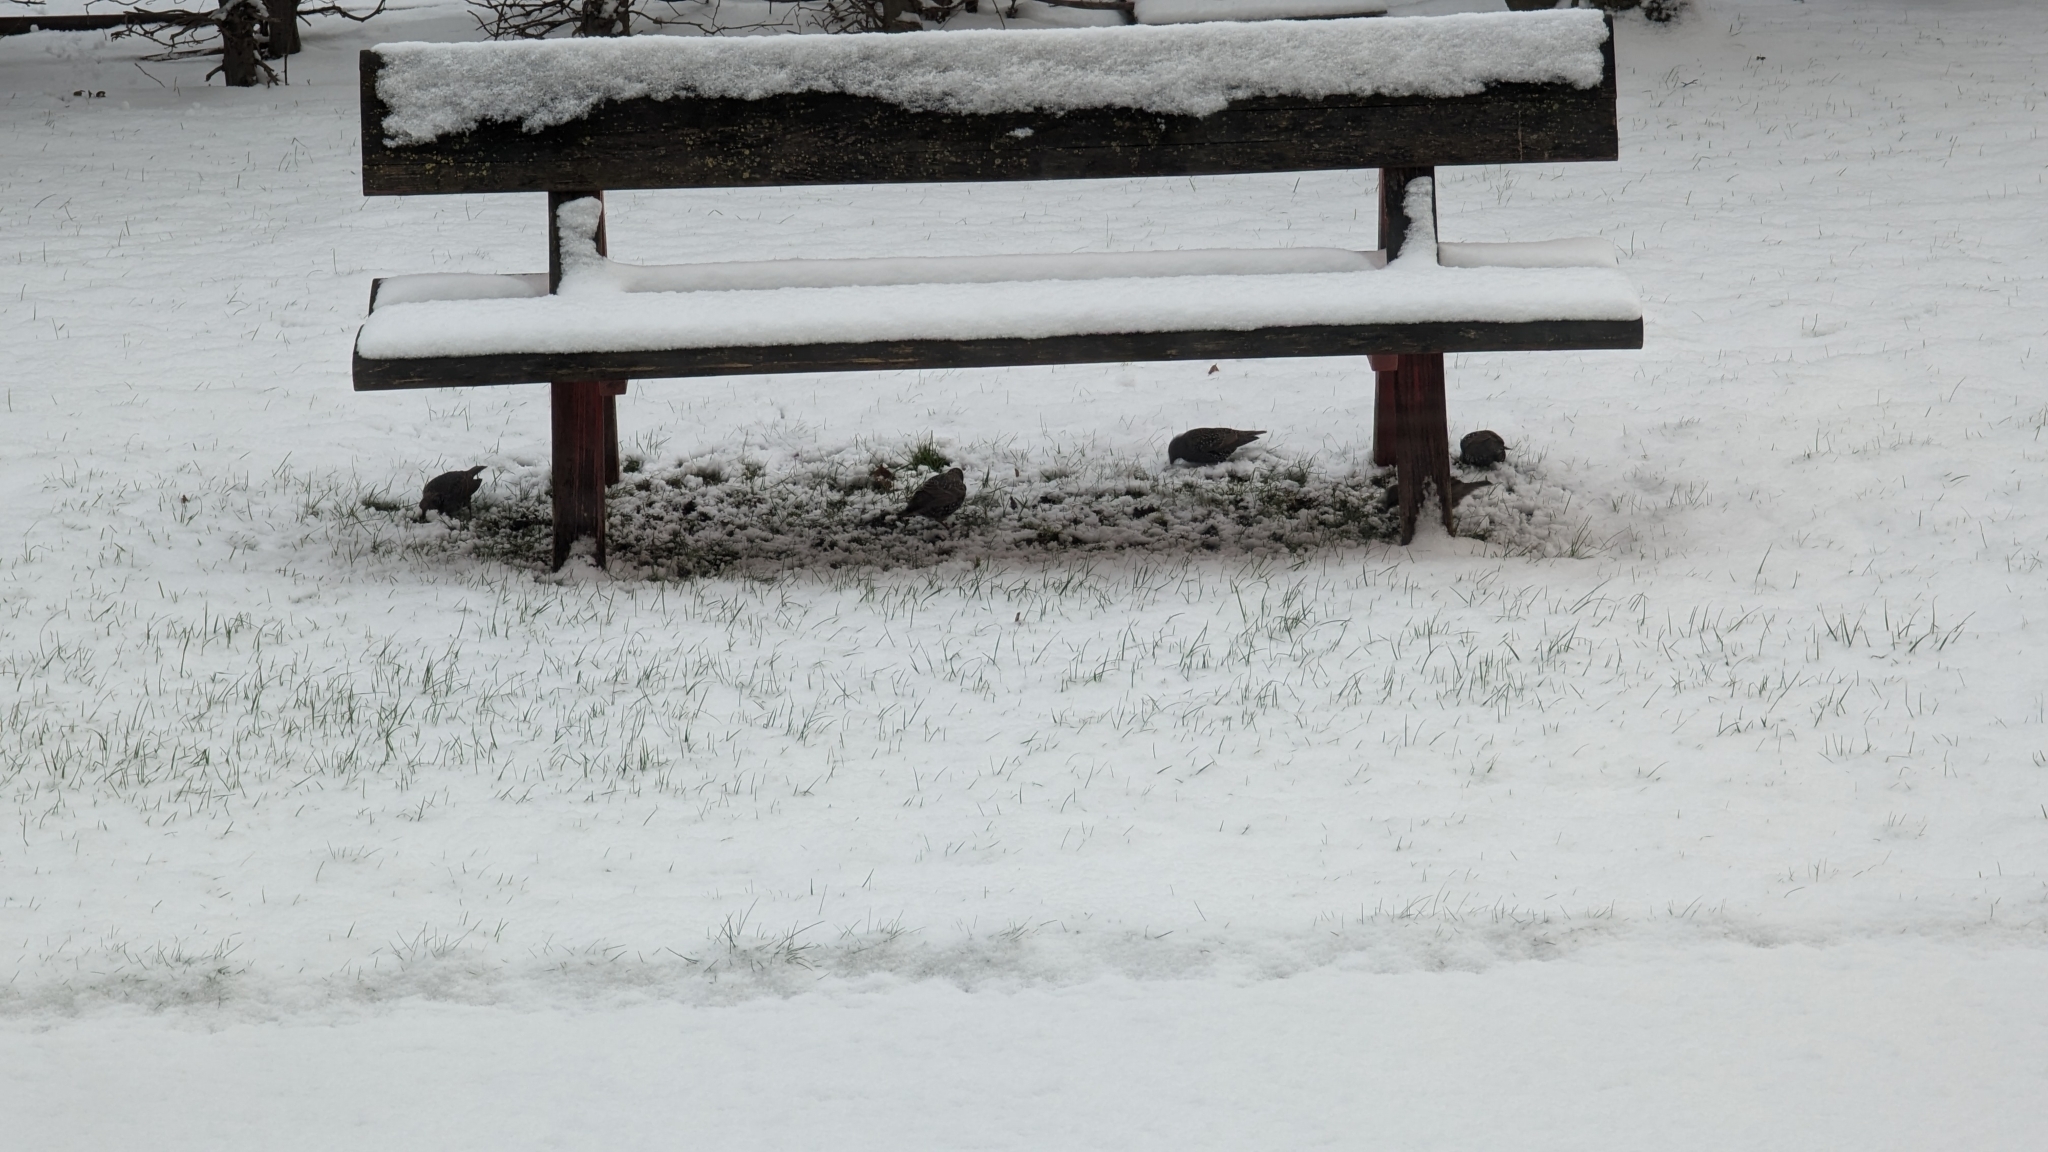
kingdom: Animalia
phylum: Chordata
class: Aves
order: Passeriformes
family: Sturnidae
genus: Sturnus
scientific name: Sturnus vulgaris
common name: Common starling
